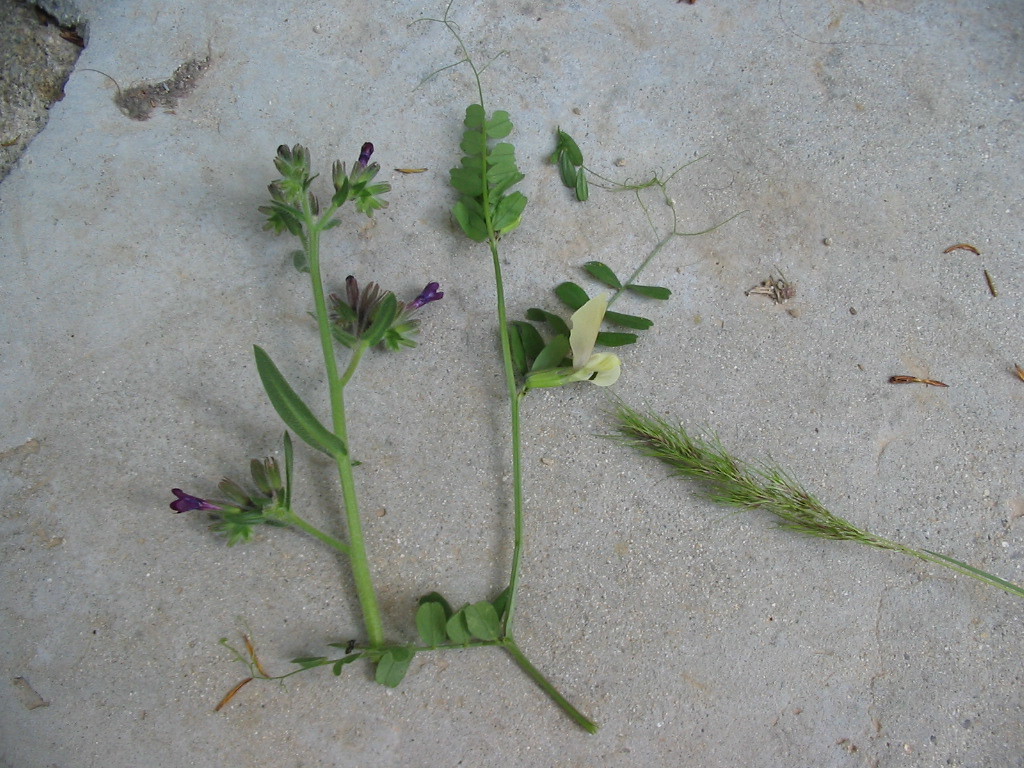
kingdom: Plantae
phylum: Tracheophyta
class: Magnoliopsida
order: Fabales
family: Fabaceae
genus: Vicia
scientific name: Vicia grandiflora
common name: Large yellow vetch
